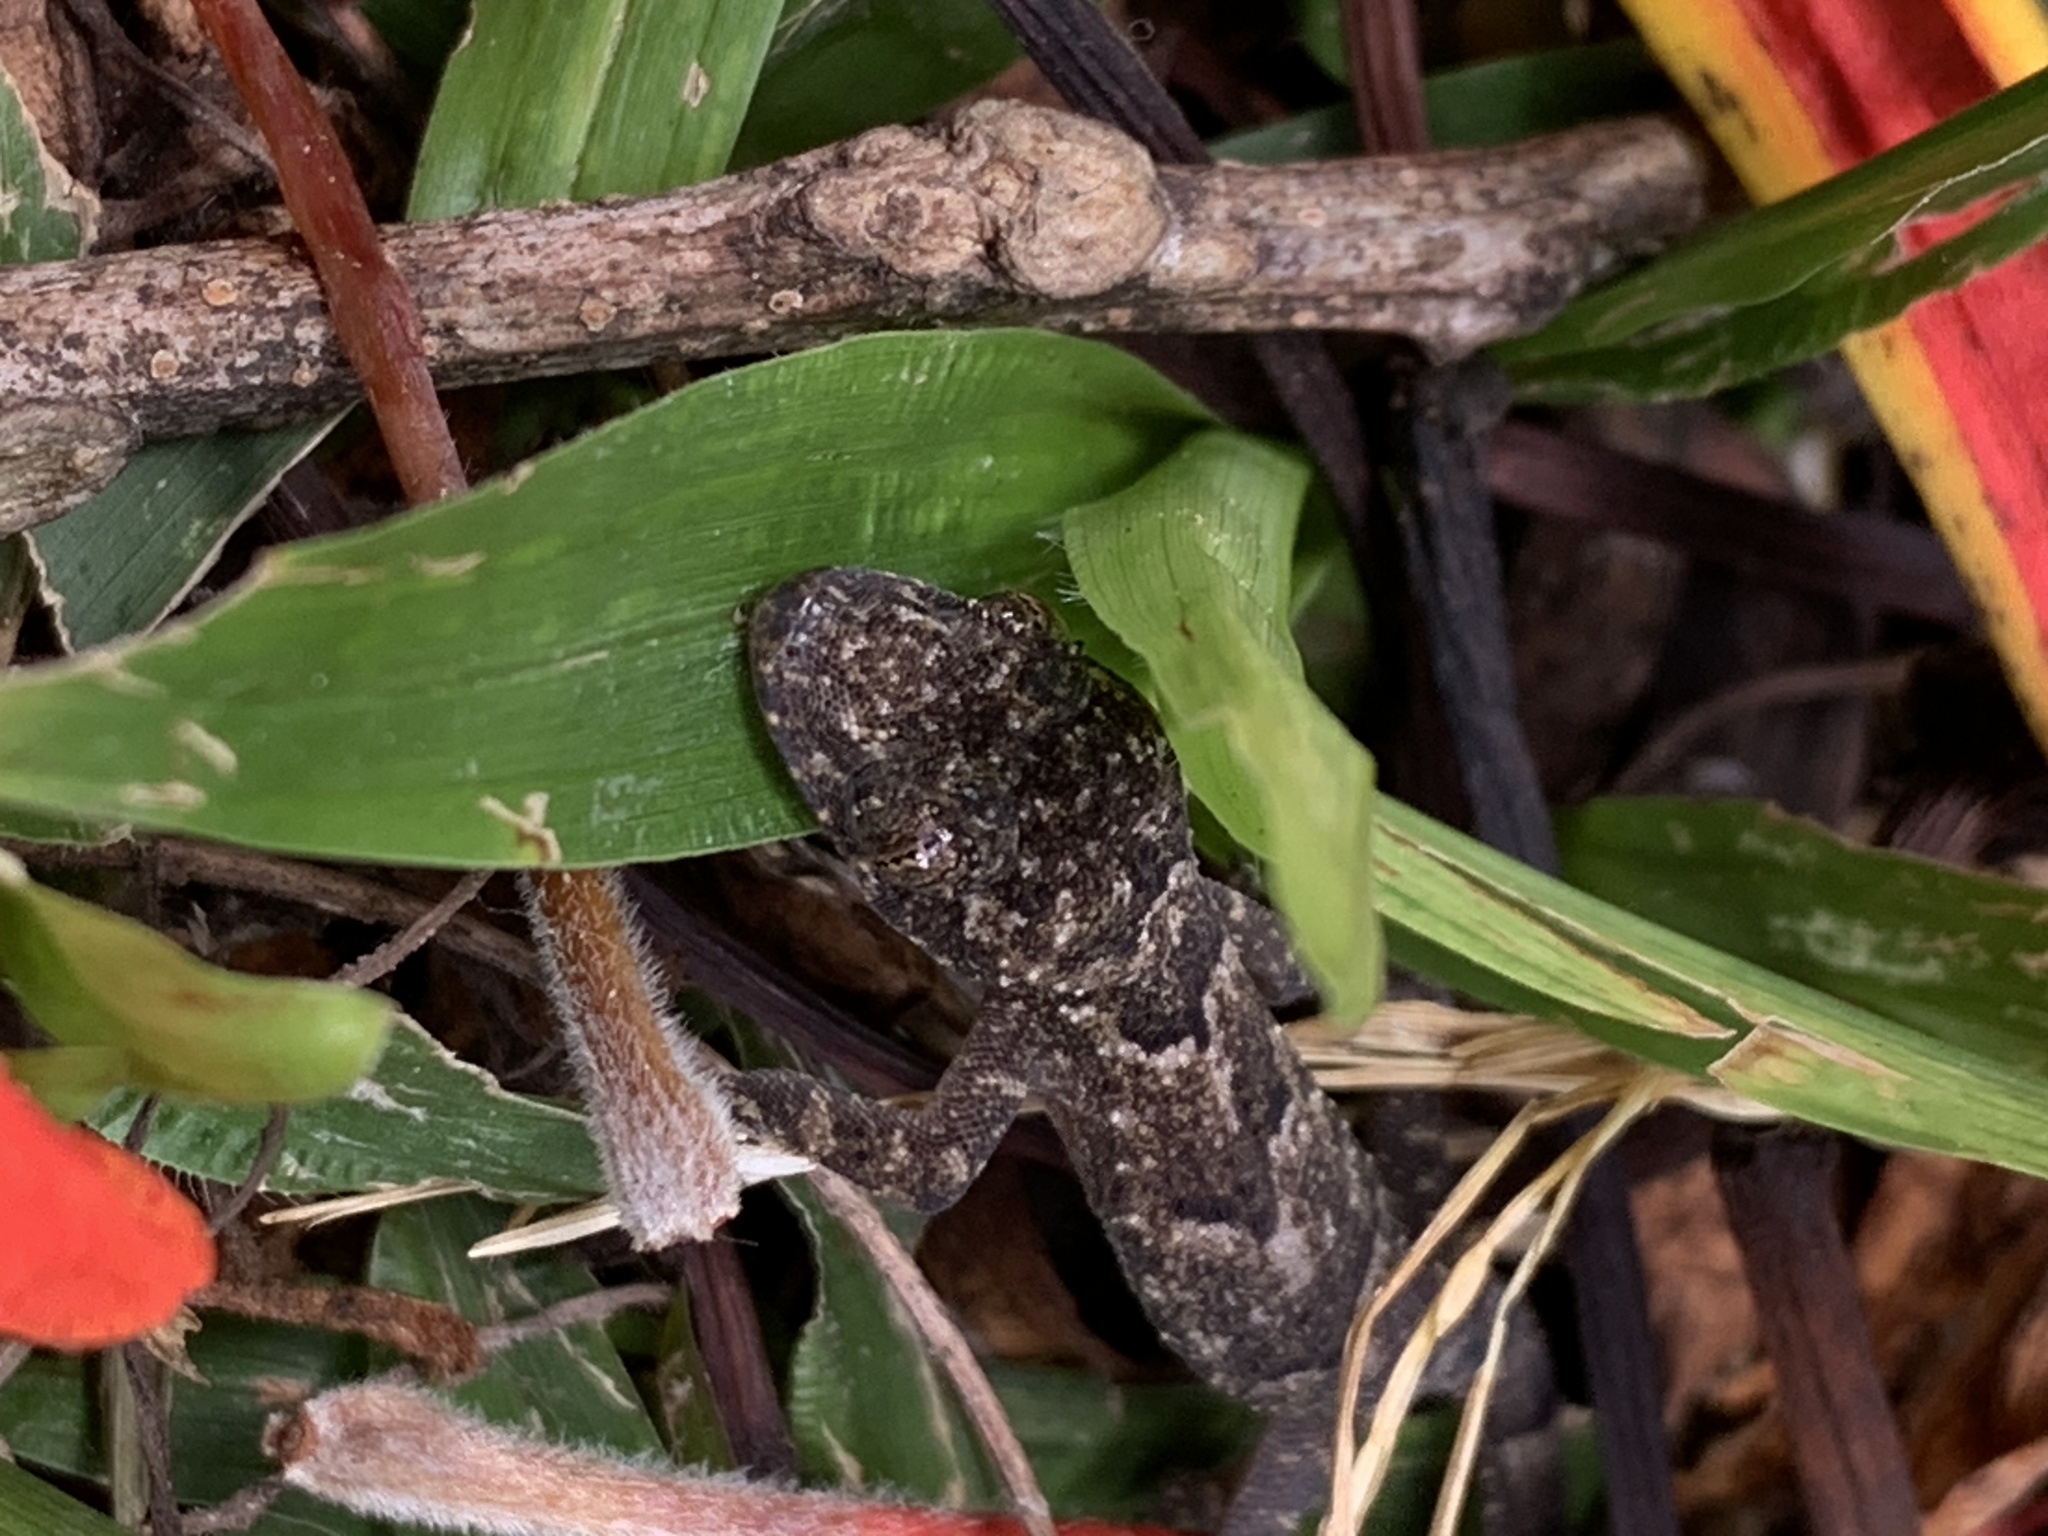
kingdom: Animalia
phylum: Chordata
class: Squamata
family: Gekkonidae
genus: Hemidactylus
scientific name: Hemidactylus mabouia
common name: House gecko
